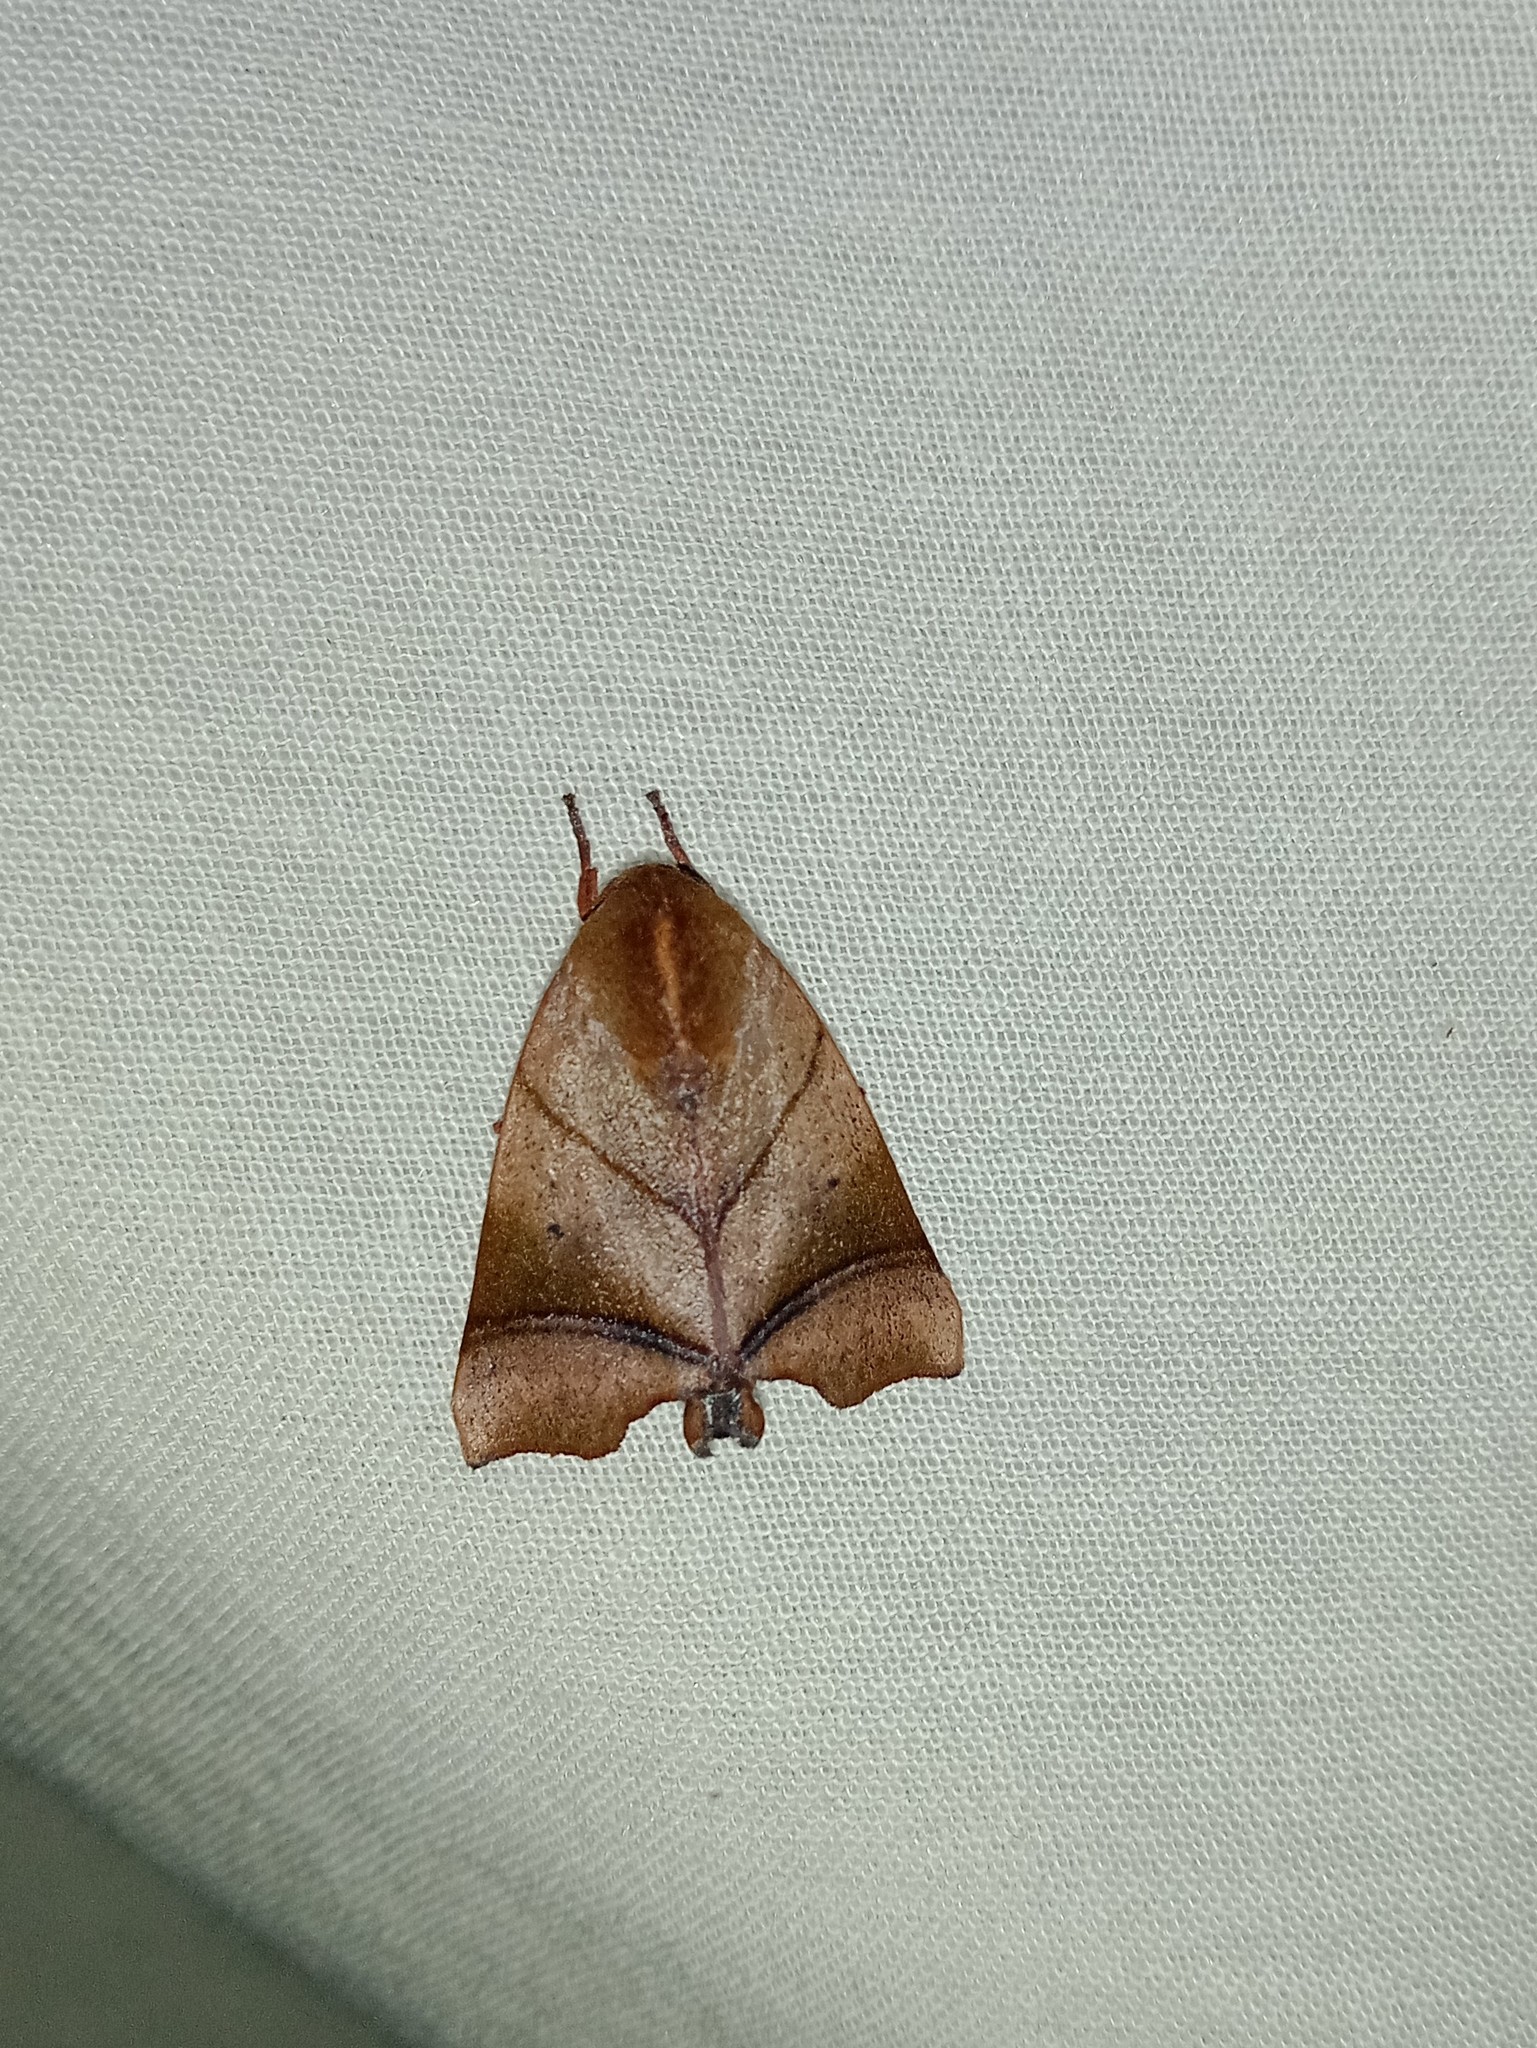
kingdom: Animalia
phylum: Arthropoda
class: Insecta
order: Lepidoptera
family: Nolidae
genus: Carea
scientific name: Carea angulata
